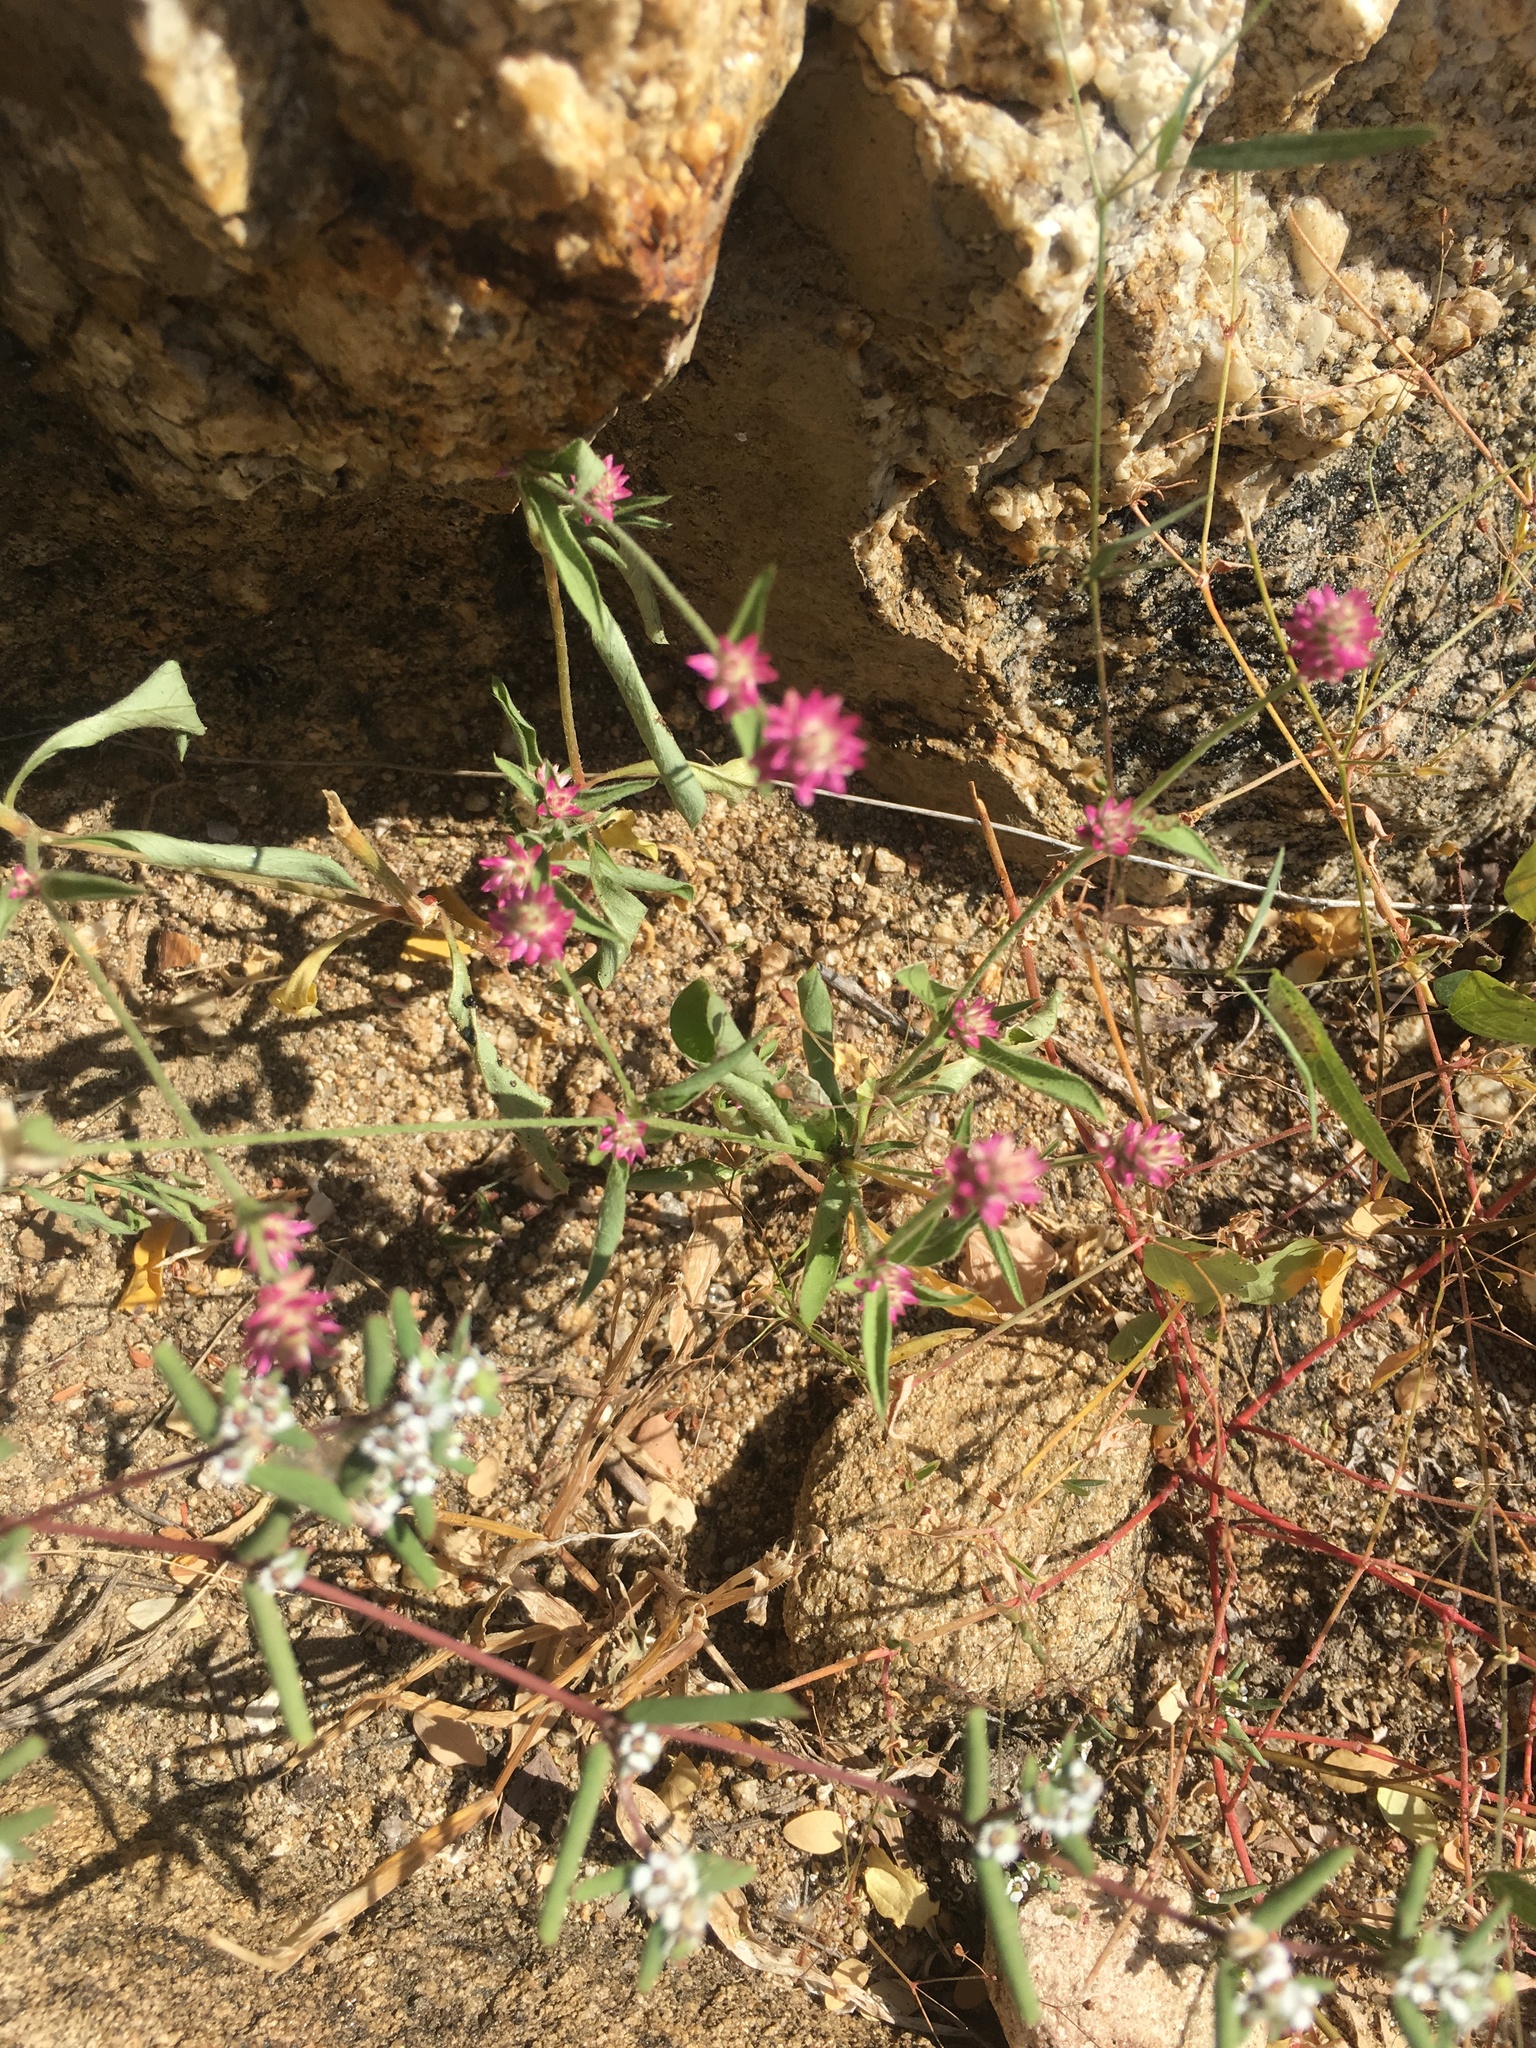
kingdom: Plantae
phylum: Tracheophyta
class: Magnoliopsida
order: Caryophyllales
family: Amaranthaceae
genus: Gomphrena
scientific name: Gomphrena sonorae
